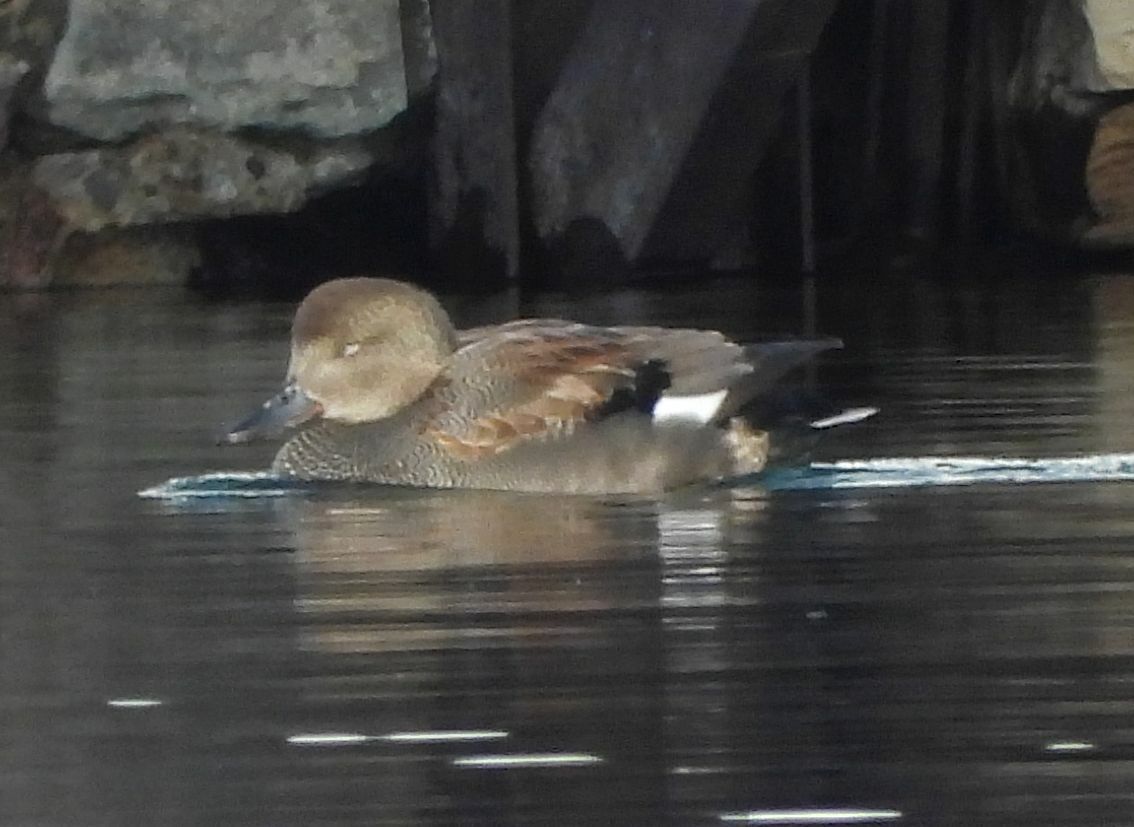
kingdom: Animalia
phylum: Chordata
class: Aves
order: Anseriformes
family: Anatidae
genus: Mareca
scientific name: Mareca strepera
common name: Gadwall
